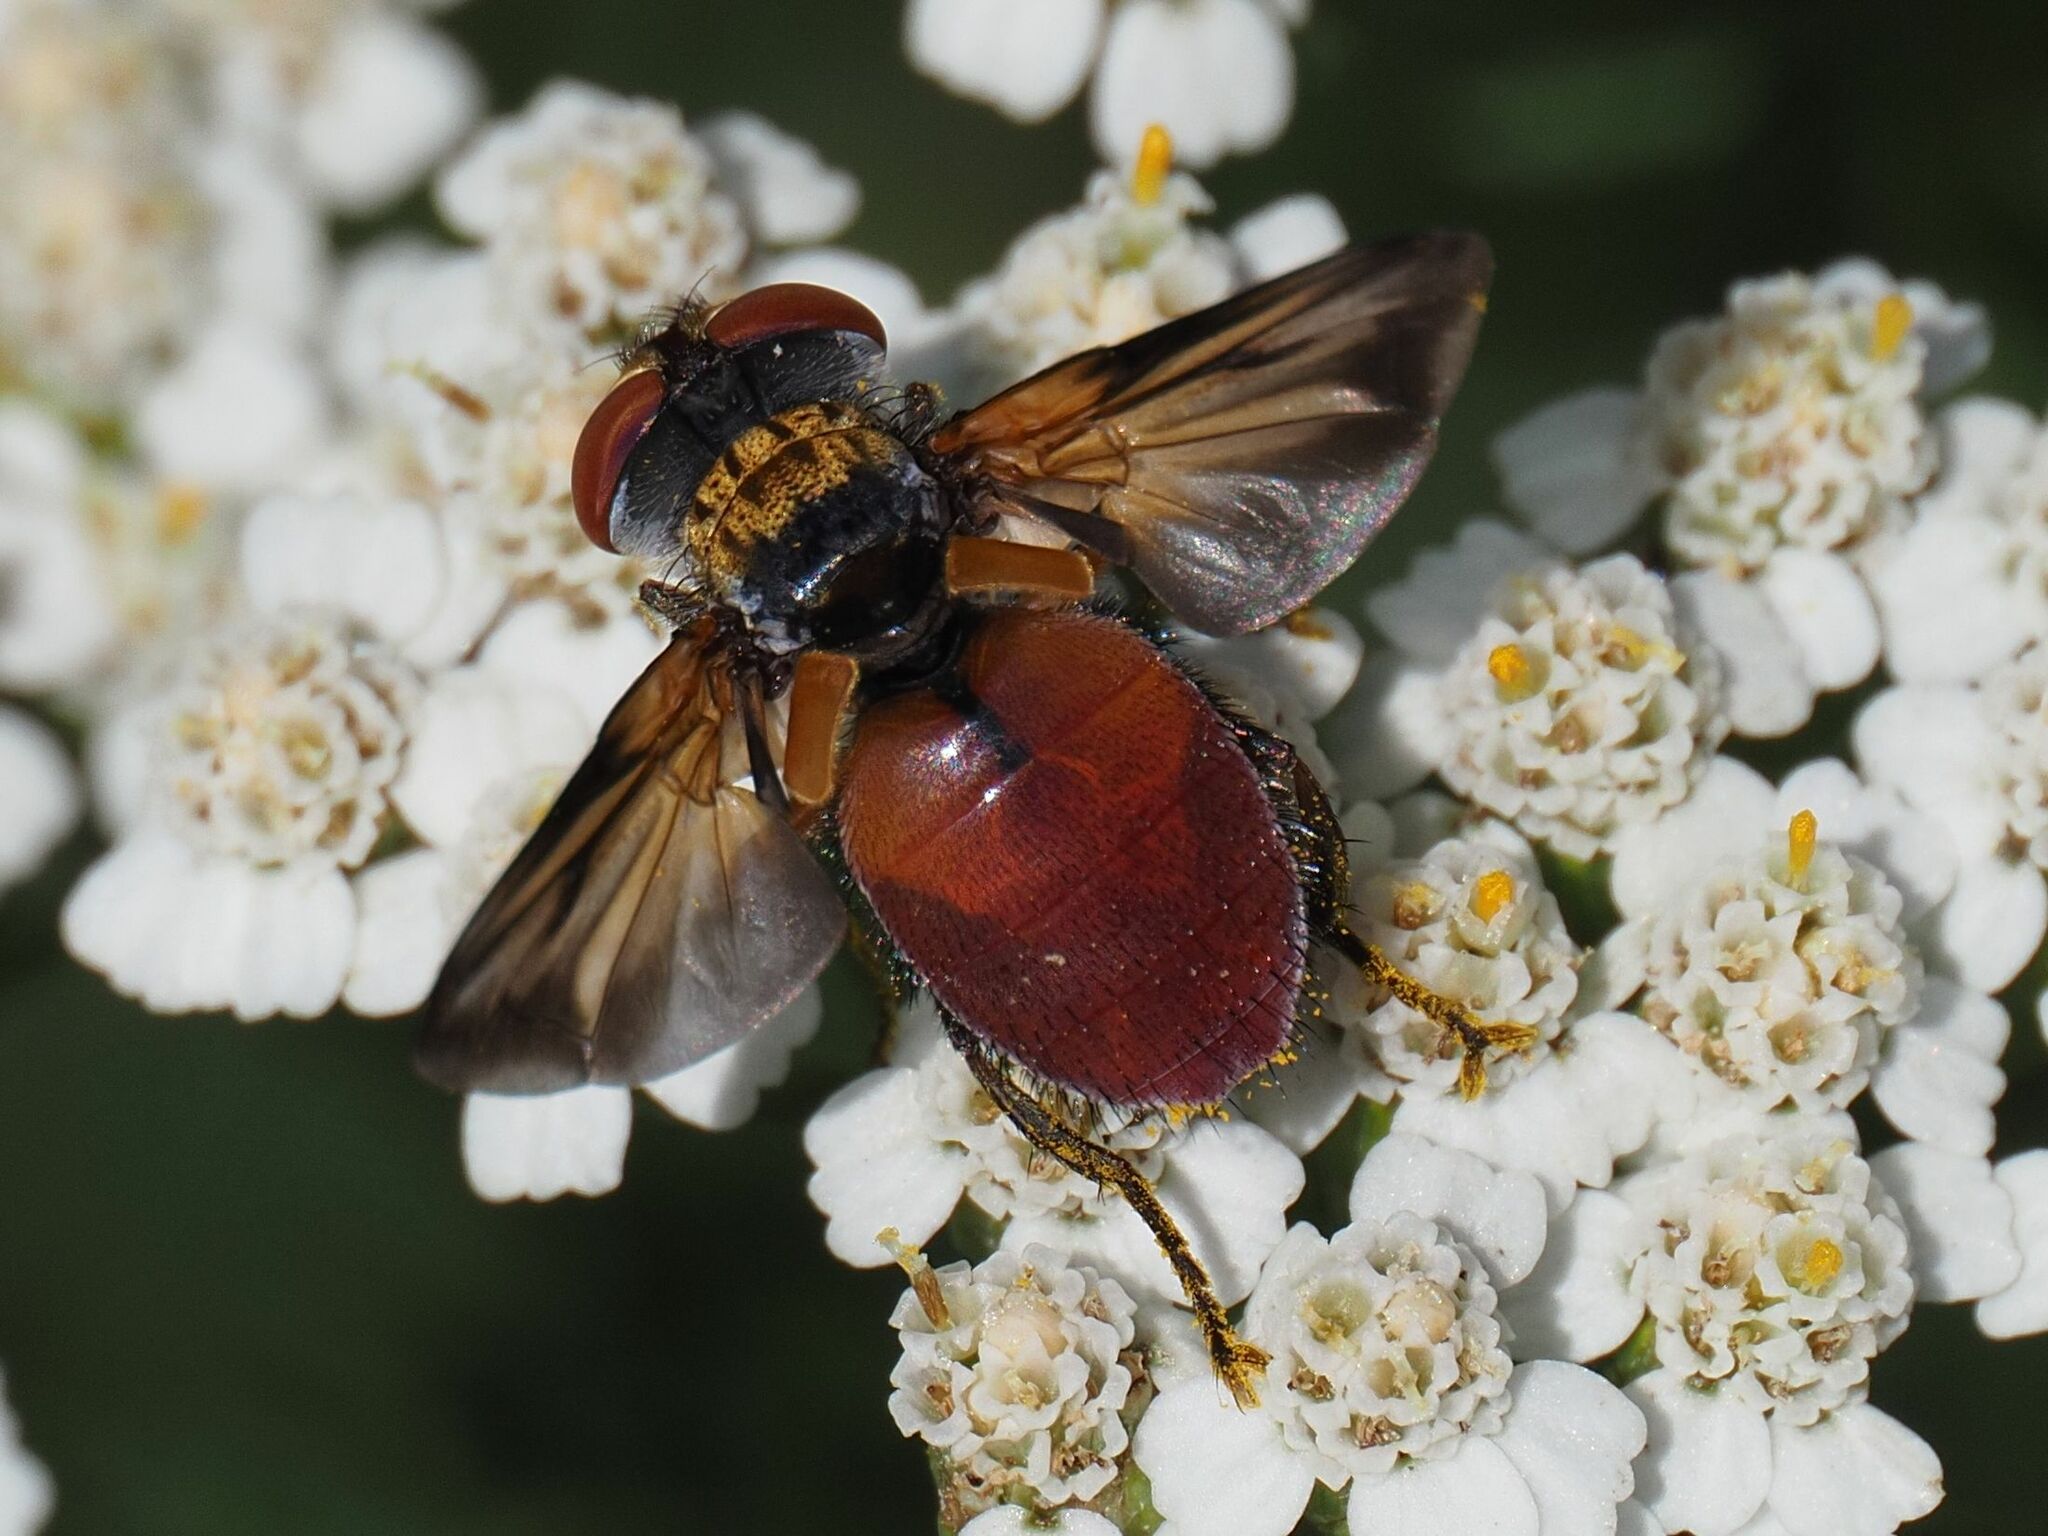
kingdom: Animalia
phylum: Arthropoda
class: Insecta
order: Diptera
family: Tachinidae
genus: Ectophasia
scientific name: Ectophasia oblonga
